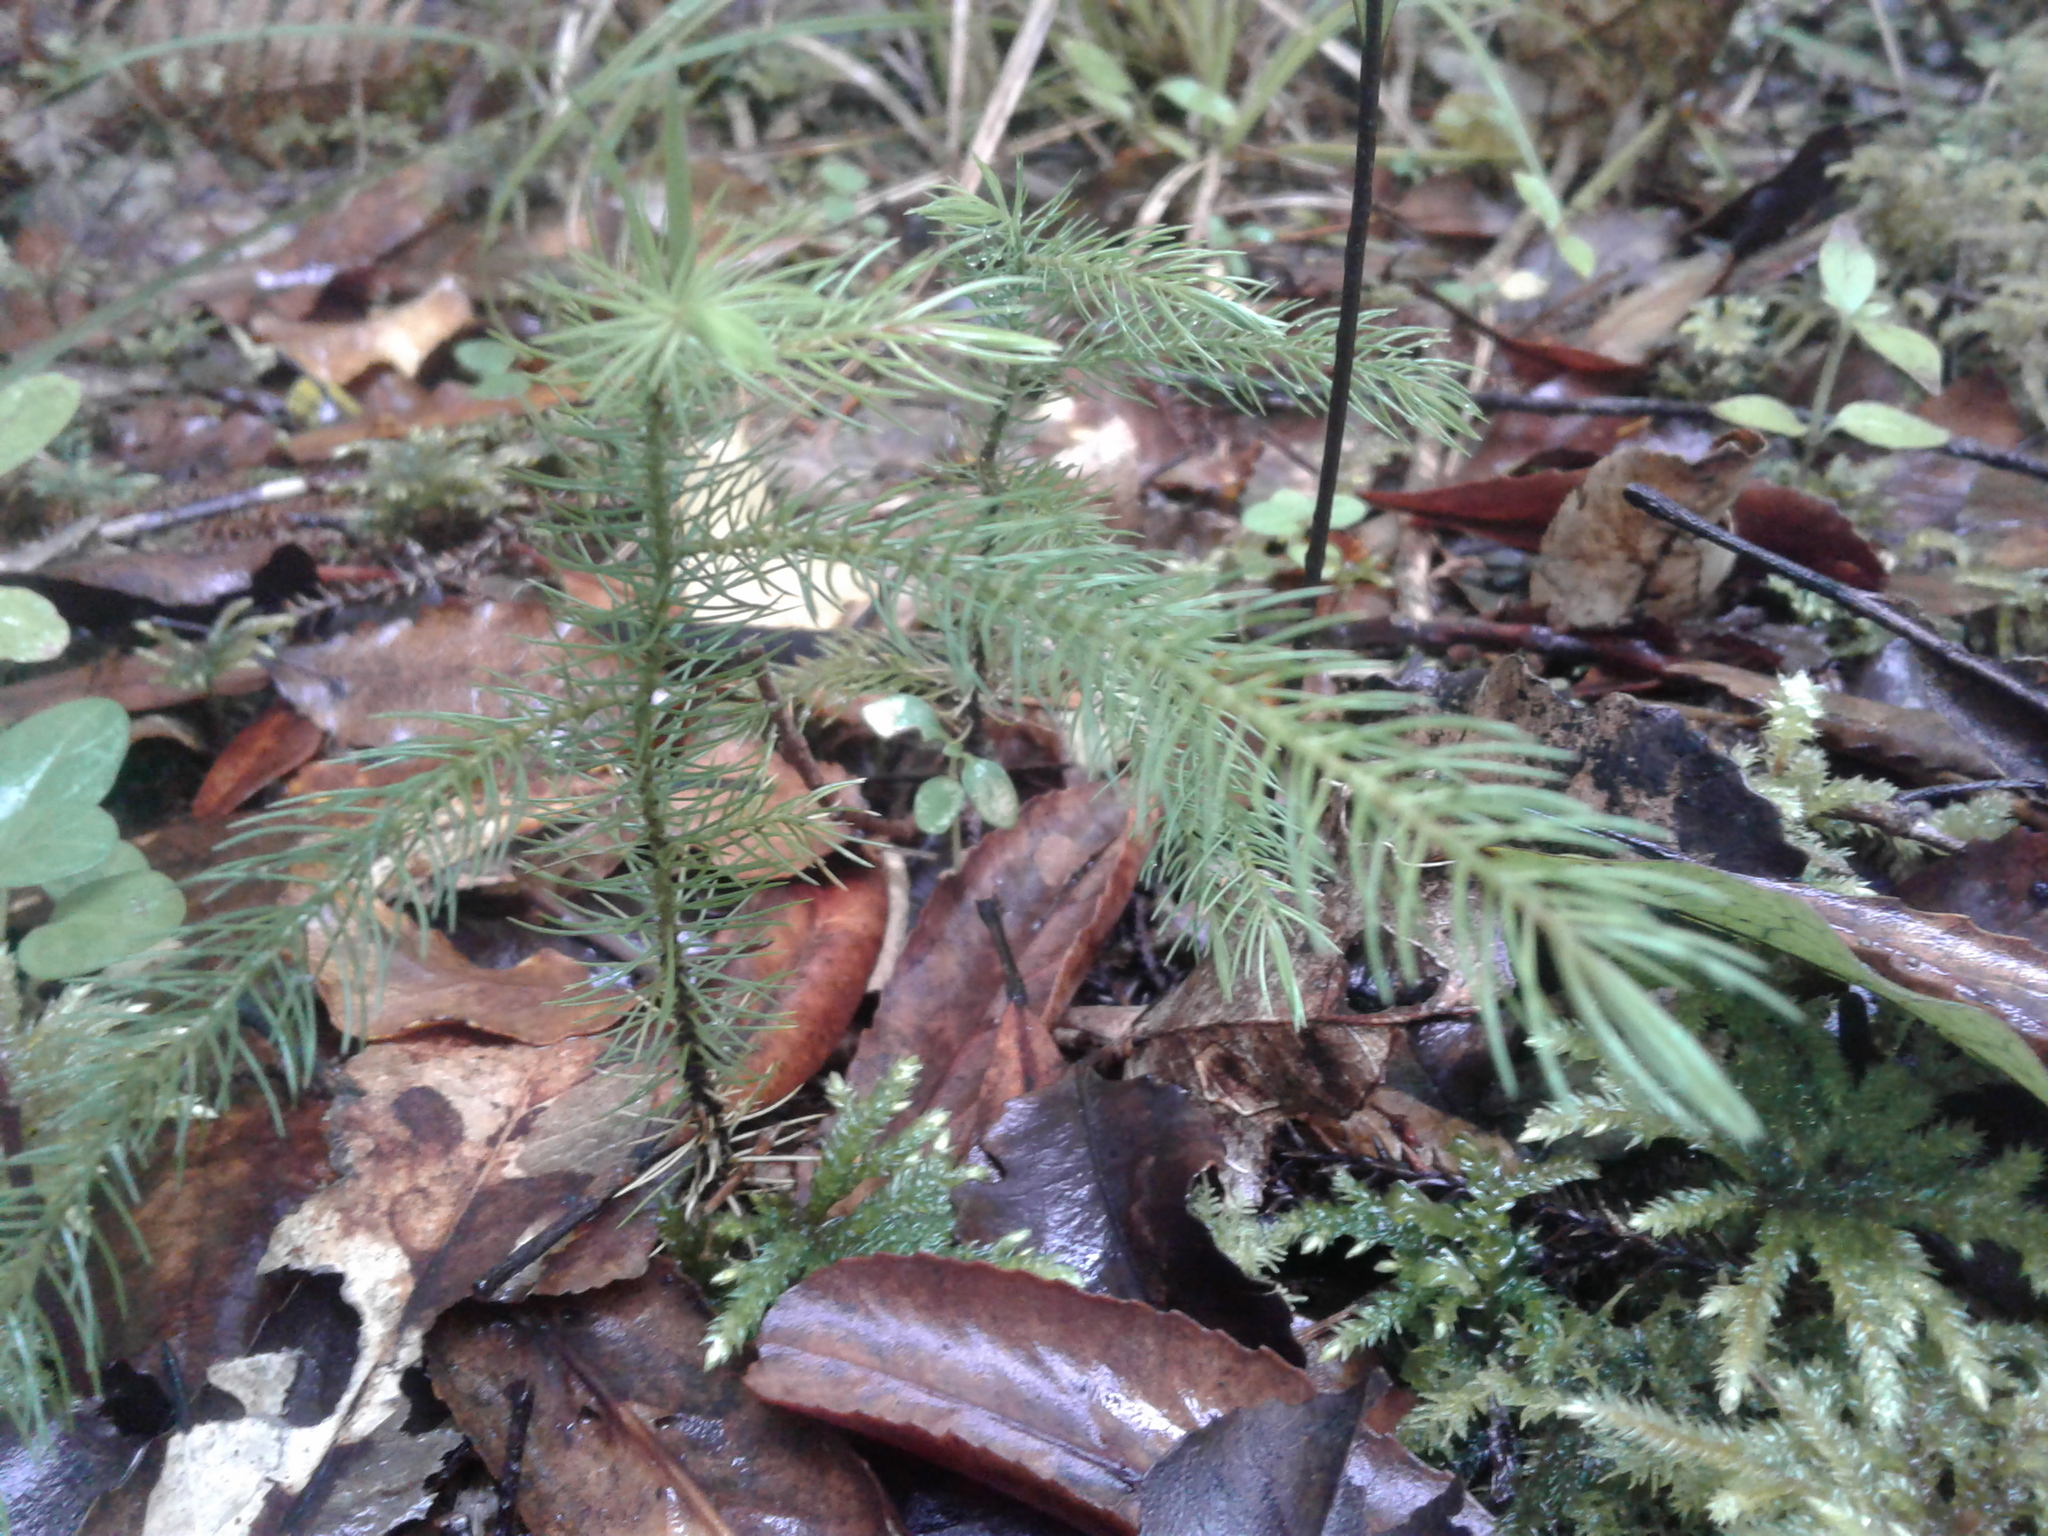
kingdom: Plantae
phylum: Tracheophyta
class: Pinopsida
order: Pinales
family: Podocarpaceae
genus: Dacrydium
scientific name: Dacrydium cupressinum
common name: Red pine
